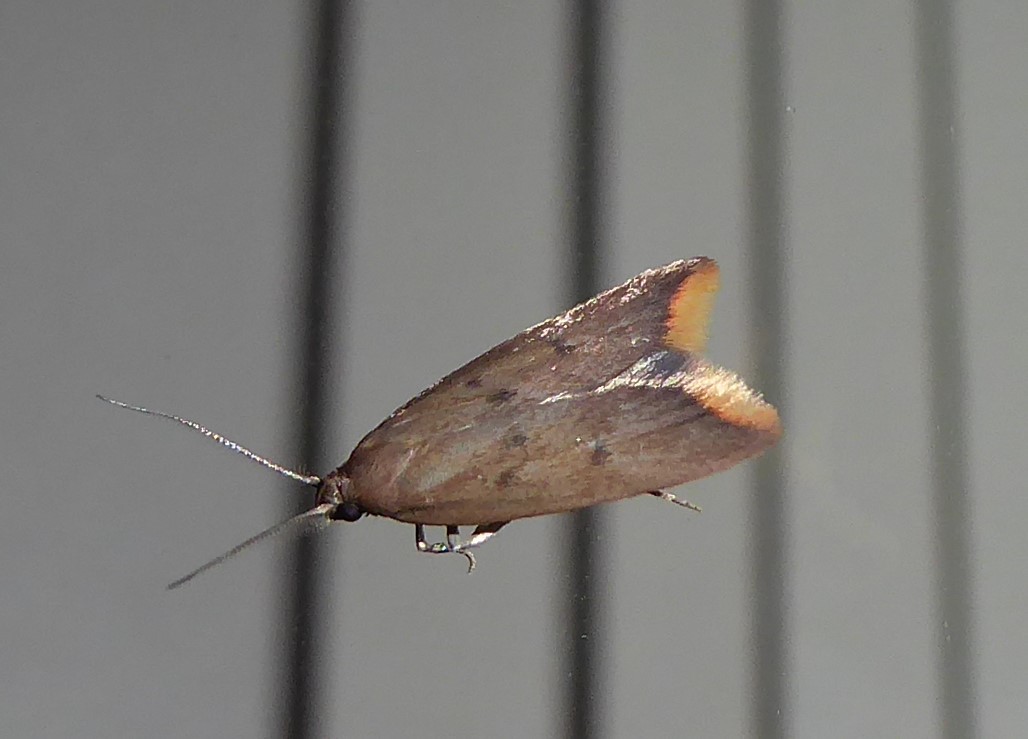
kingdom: Animalia
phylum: Arthropoda
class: Insecta
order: Lepidoptera
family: Oecophoridae
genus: Tachystola
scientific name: Tachystola acroxantha
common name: Ruddy streak
